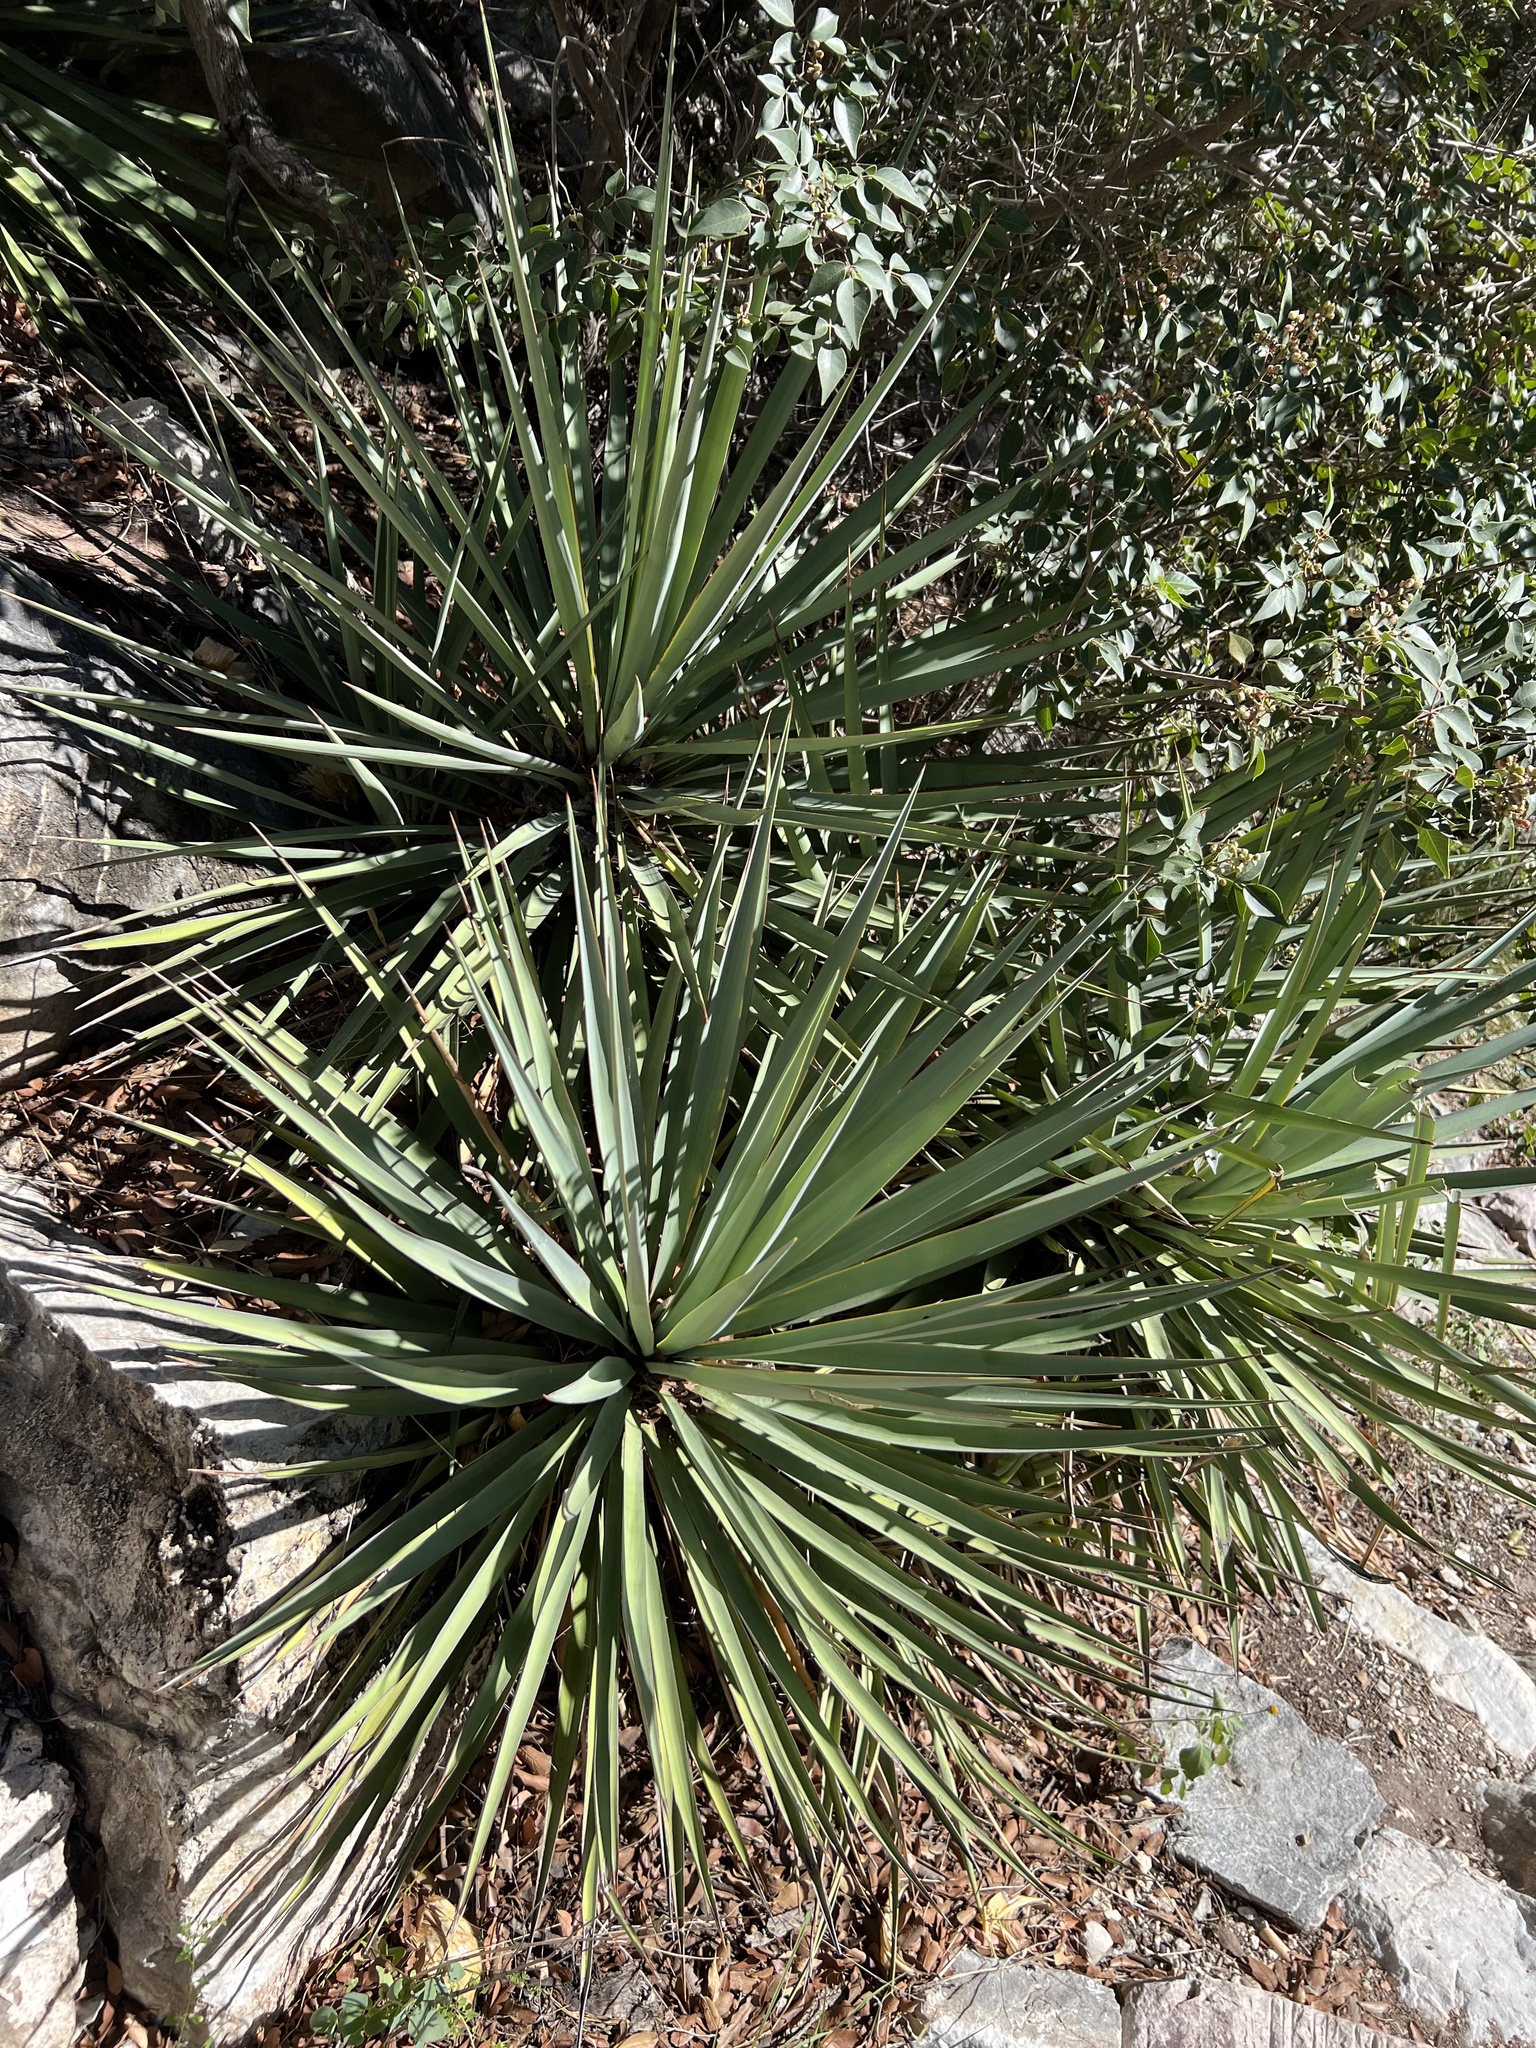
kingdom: Plantae
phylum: Tracheophyta
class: Liliopsida
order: Asparagales
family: Asparagaceae
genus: Yucca
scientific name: Yucca madrensis
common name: Hoary yucca
